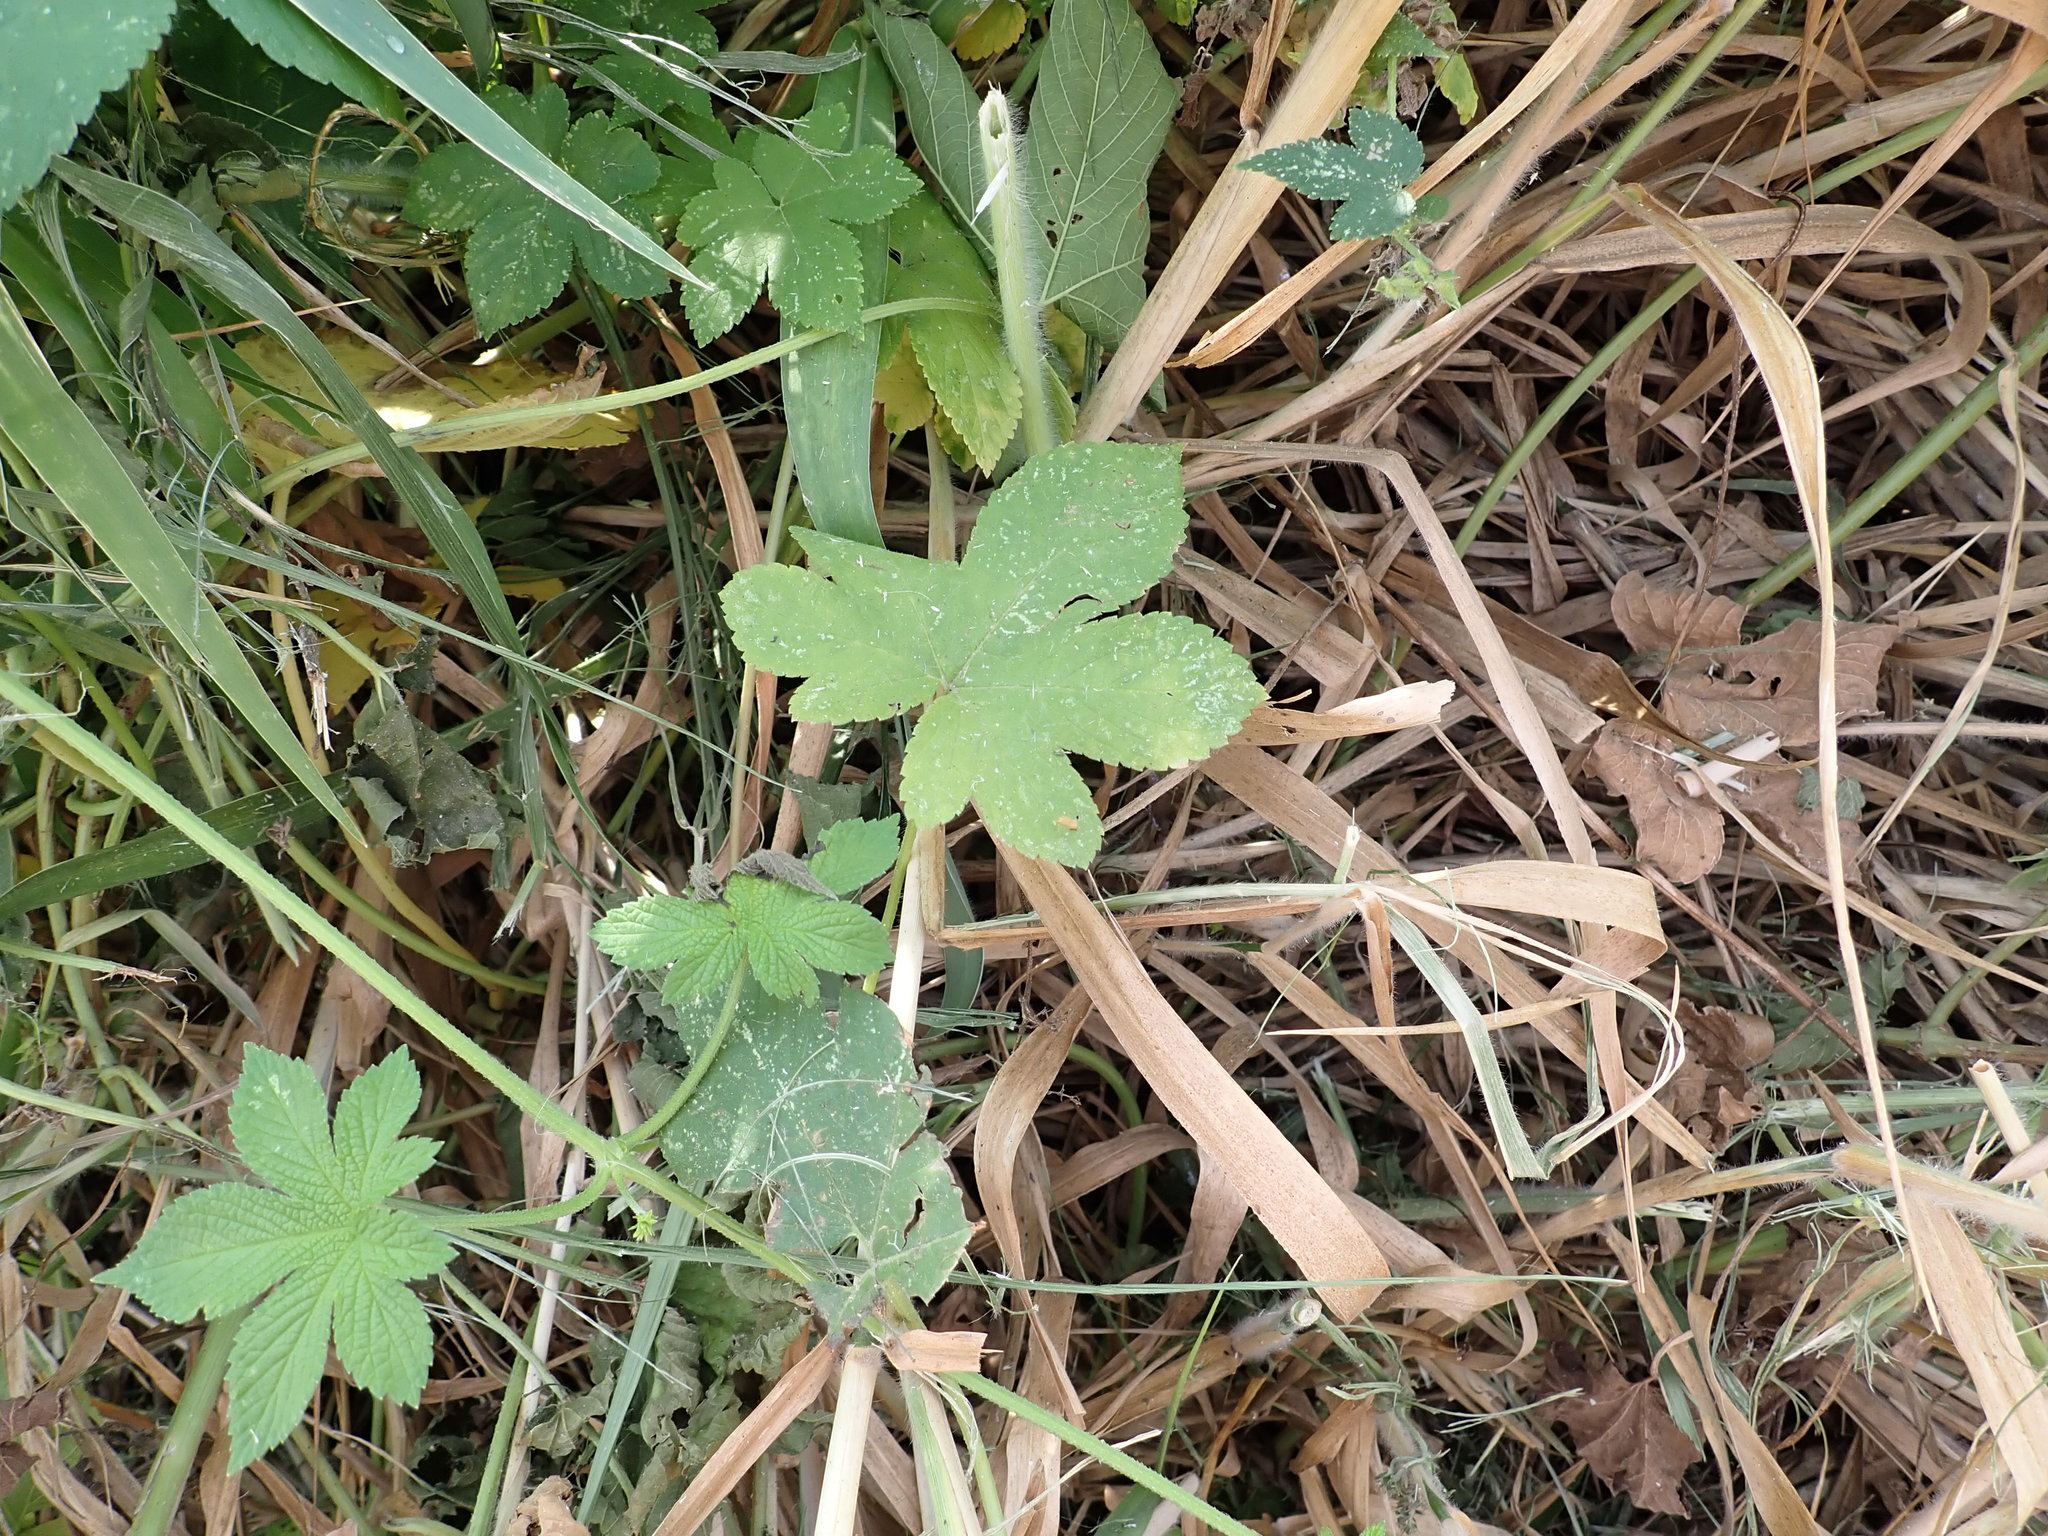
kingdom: Plantae
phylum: Tracheophyta
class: Magnoliopsida
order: Rosales
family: Cannabaceae
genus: Humulus
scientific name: Humulus scandens
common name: Japanese hop
